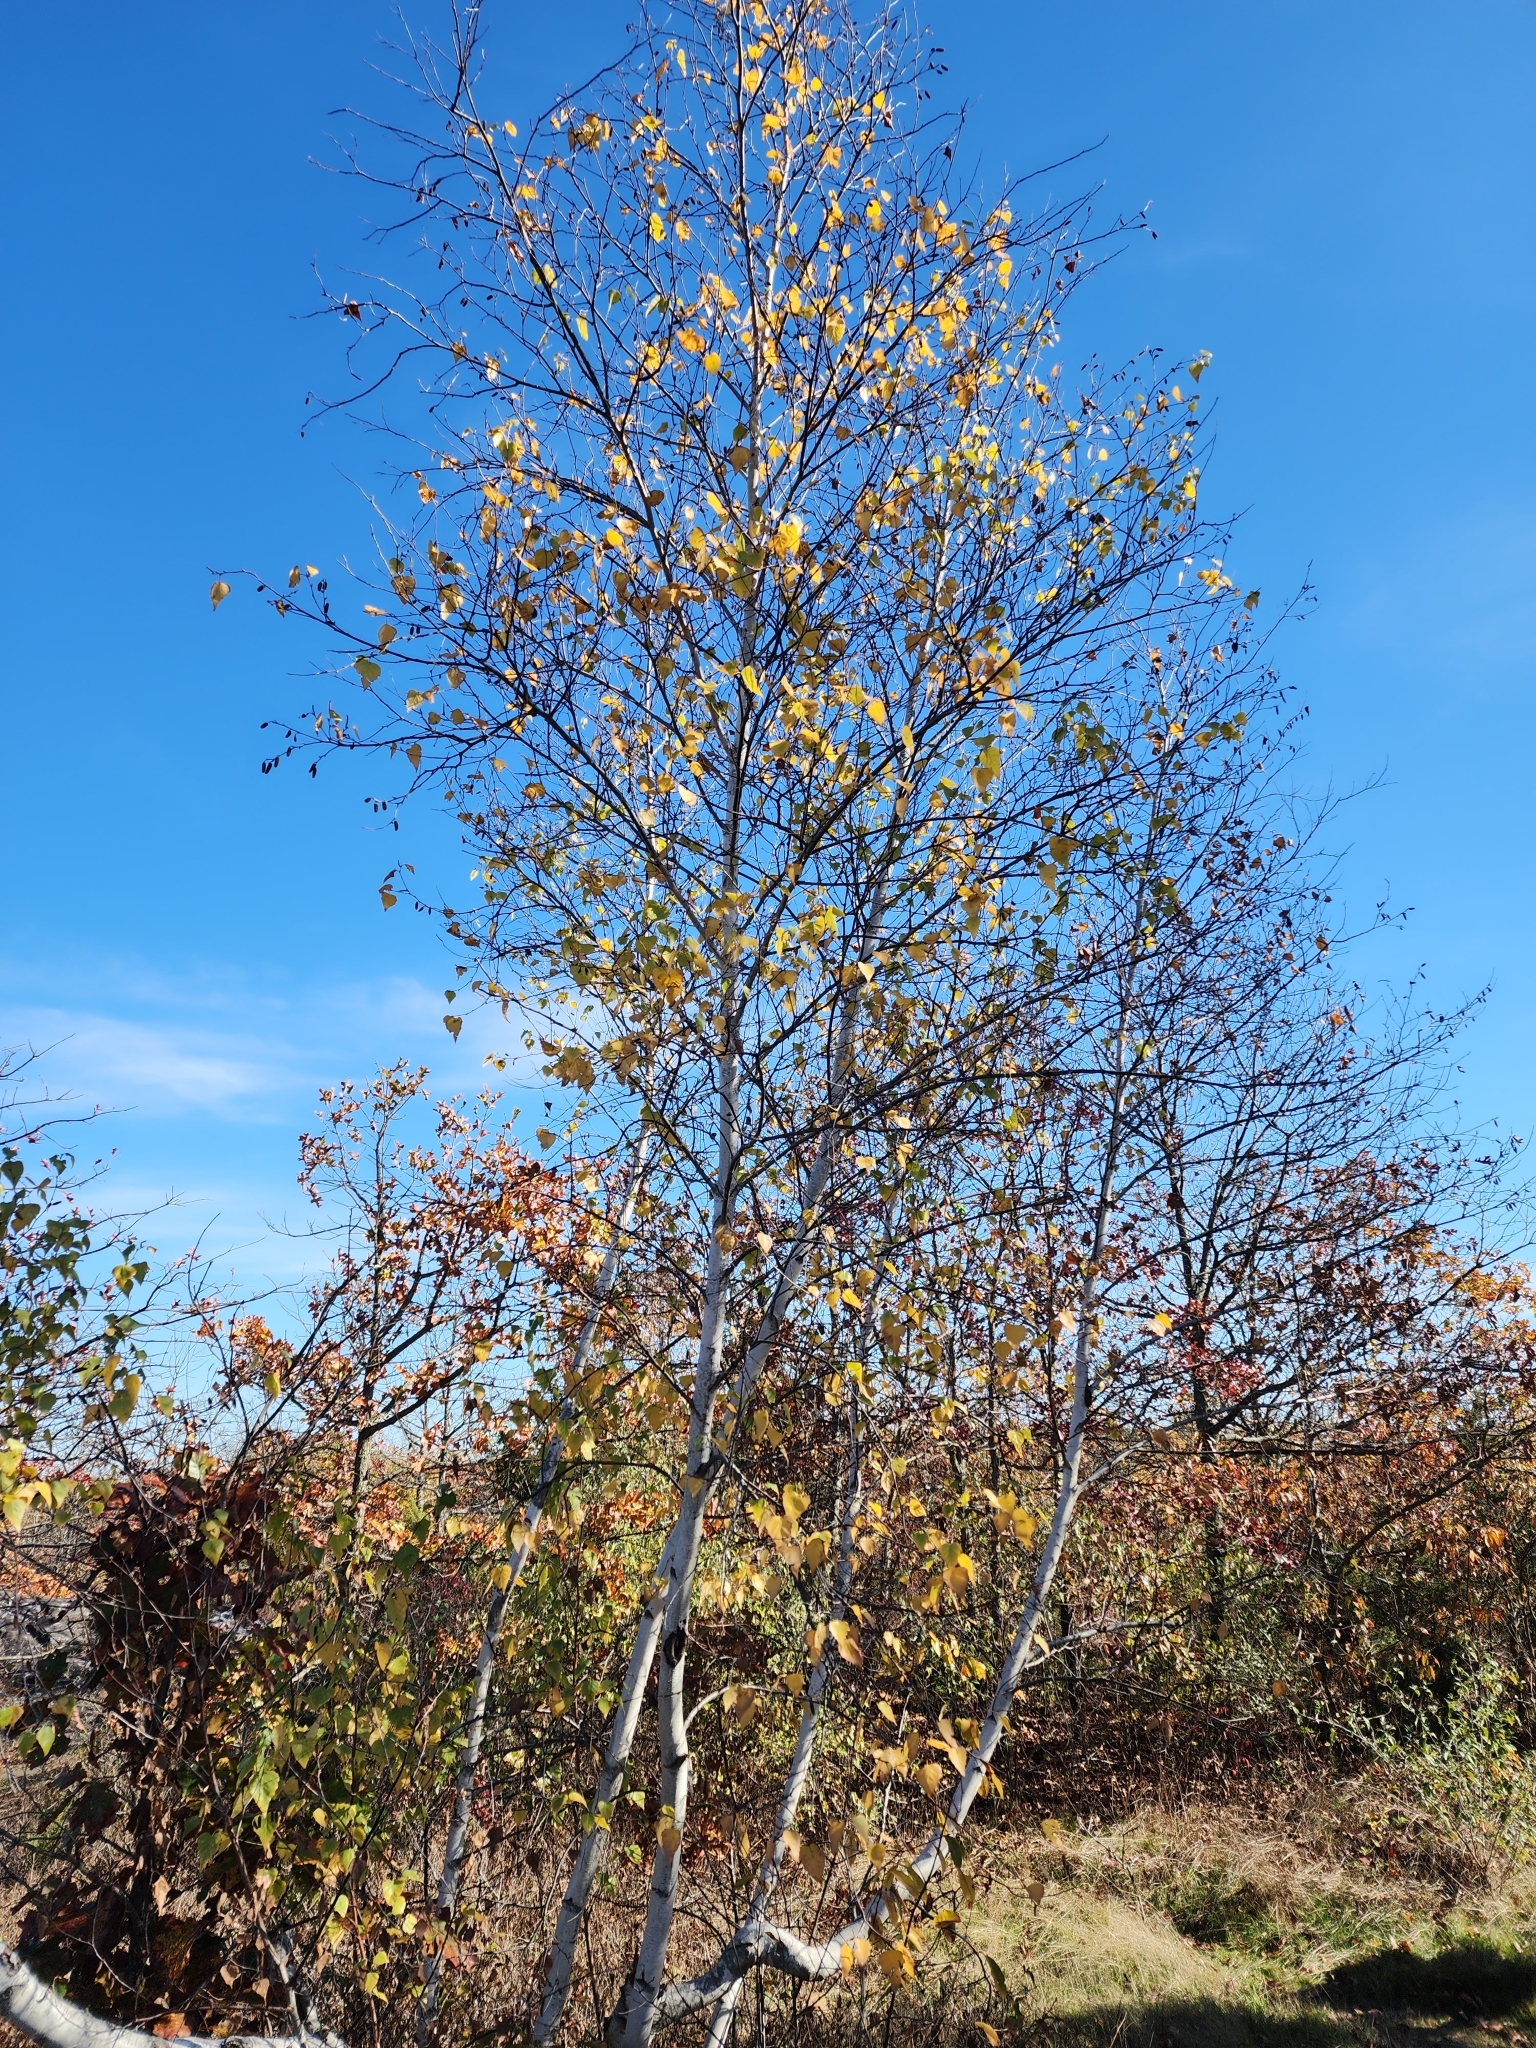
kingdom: Plantae
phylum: Tracheophyta
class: Magnoliopsida
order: Fagales
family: Betulaceae
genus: Betula
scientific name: Betula populifolia
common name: Fire birch
